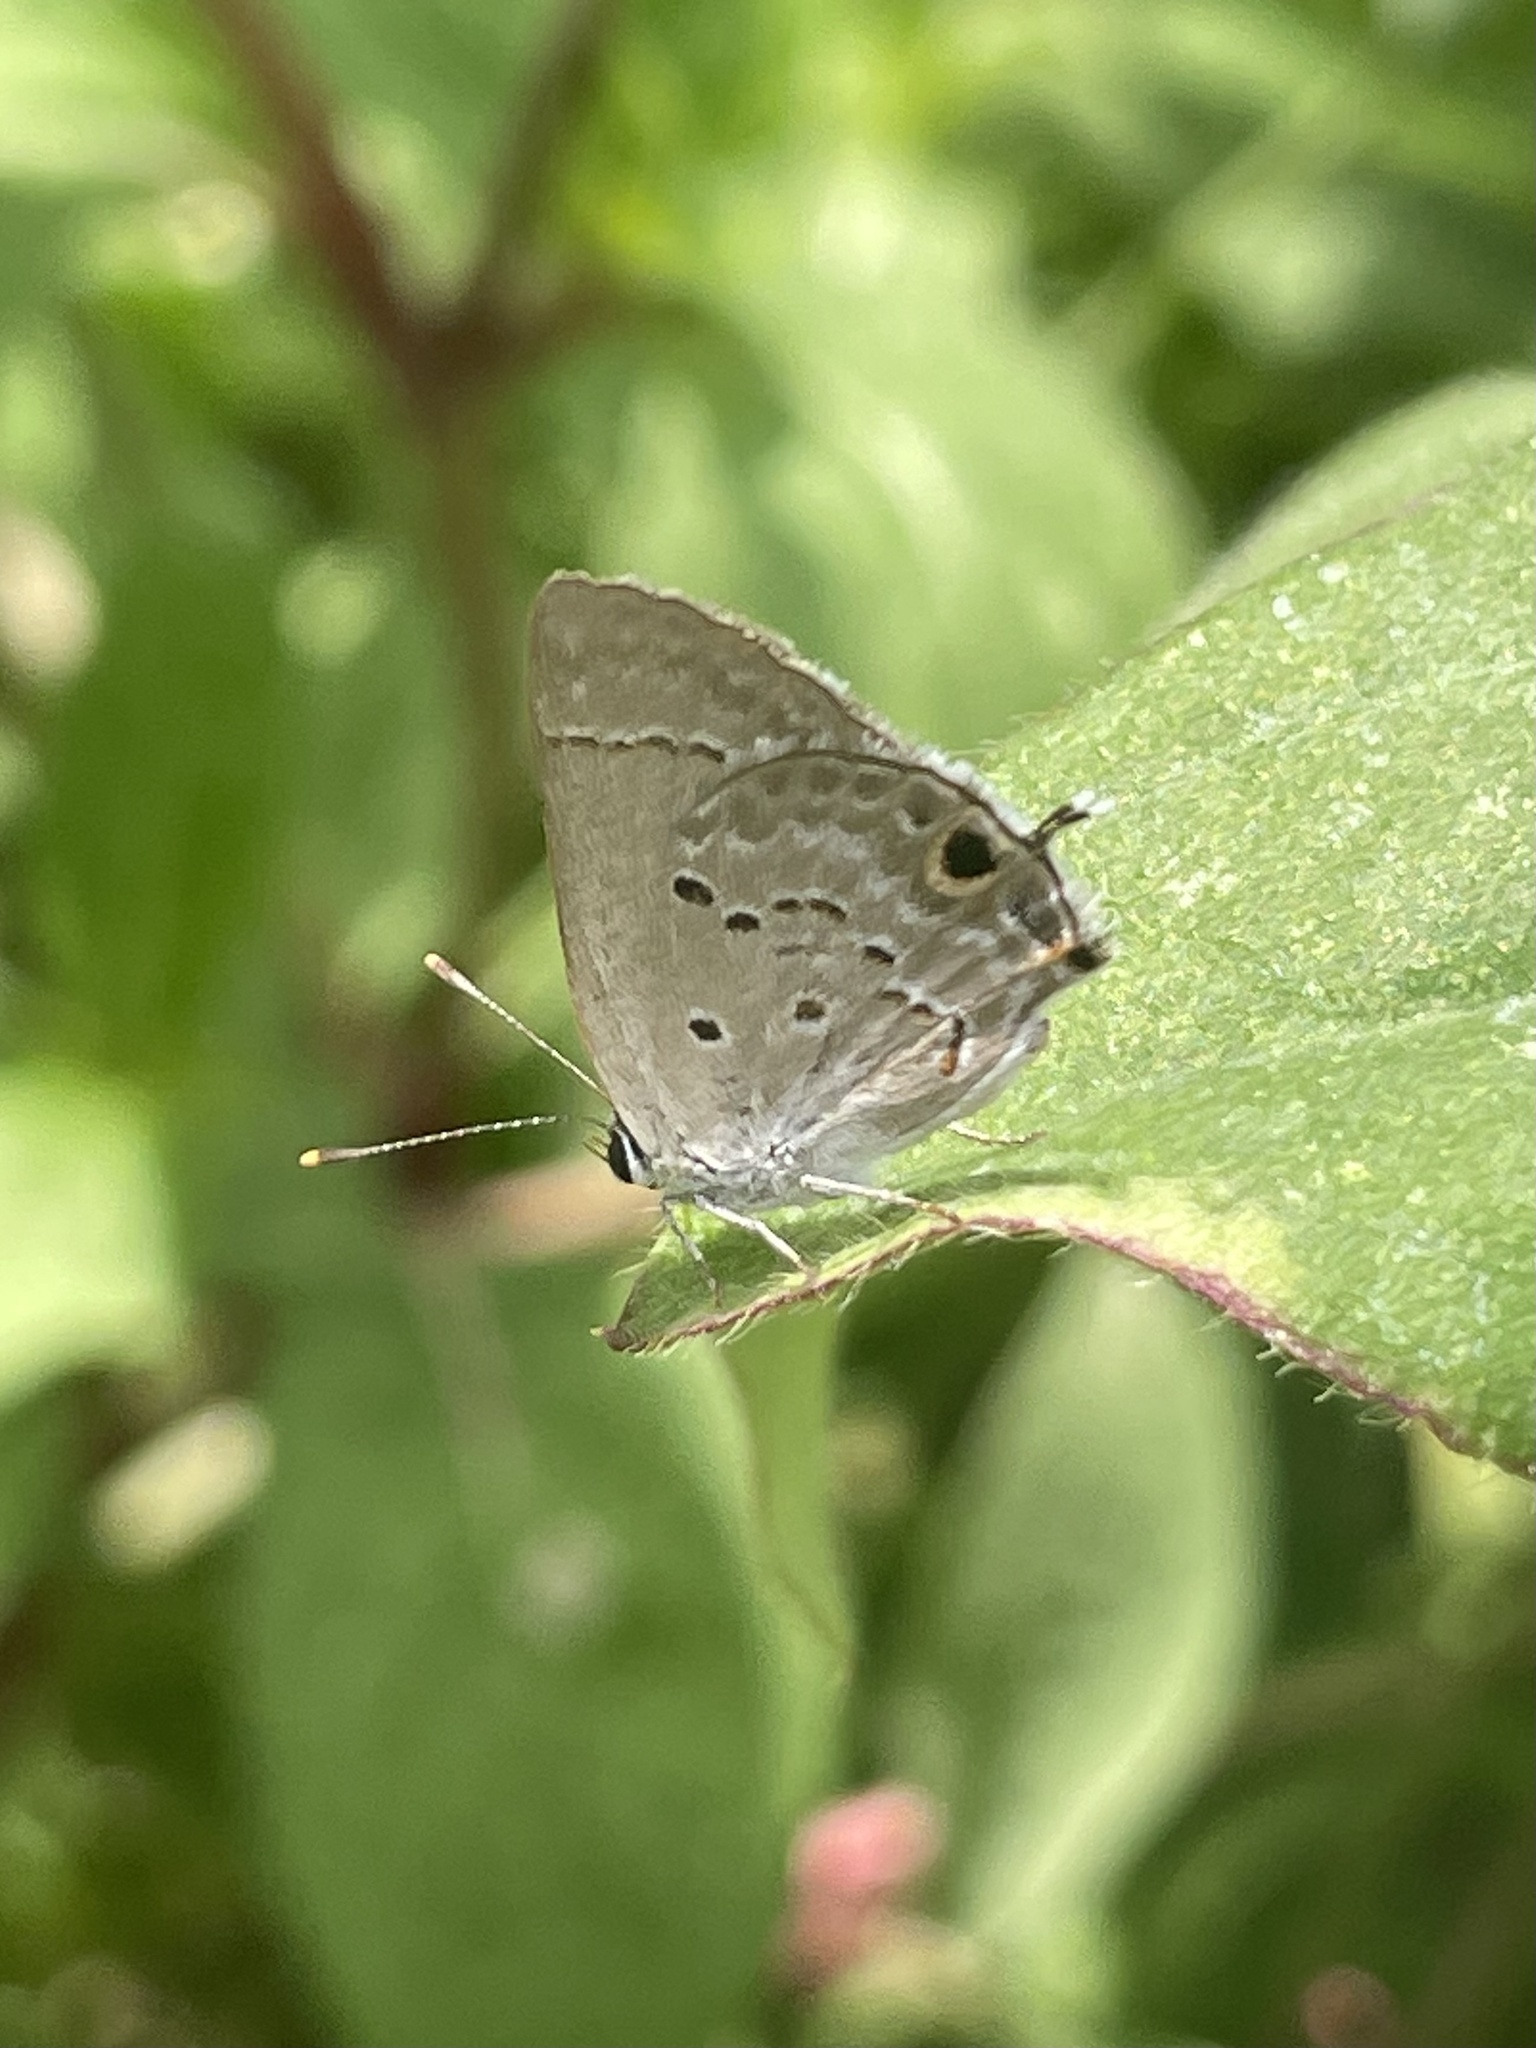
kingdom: Animalia
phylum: Arthropoda
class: Insecta
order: Lepidoptera
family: Lycaenidae
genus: Callicista
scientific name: Callicista columella
